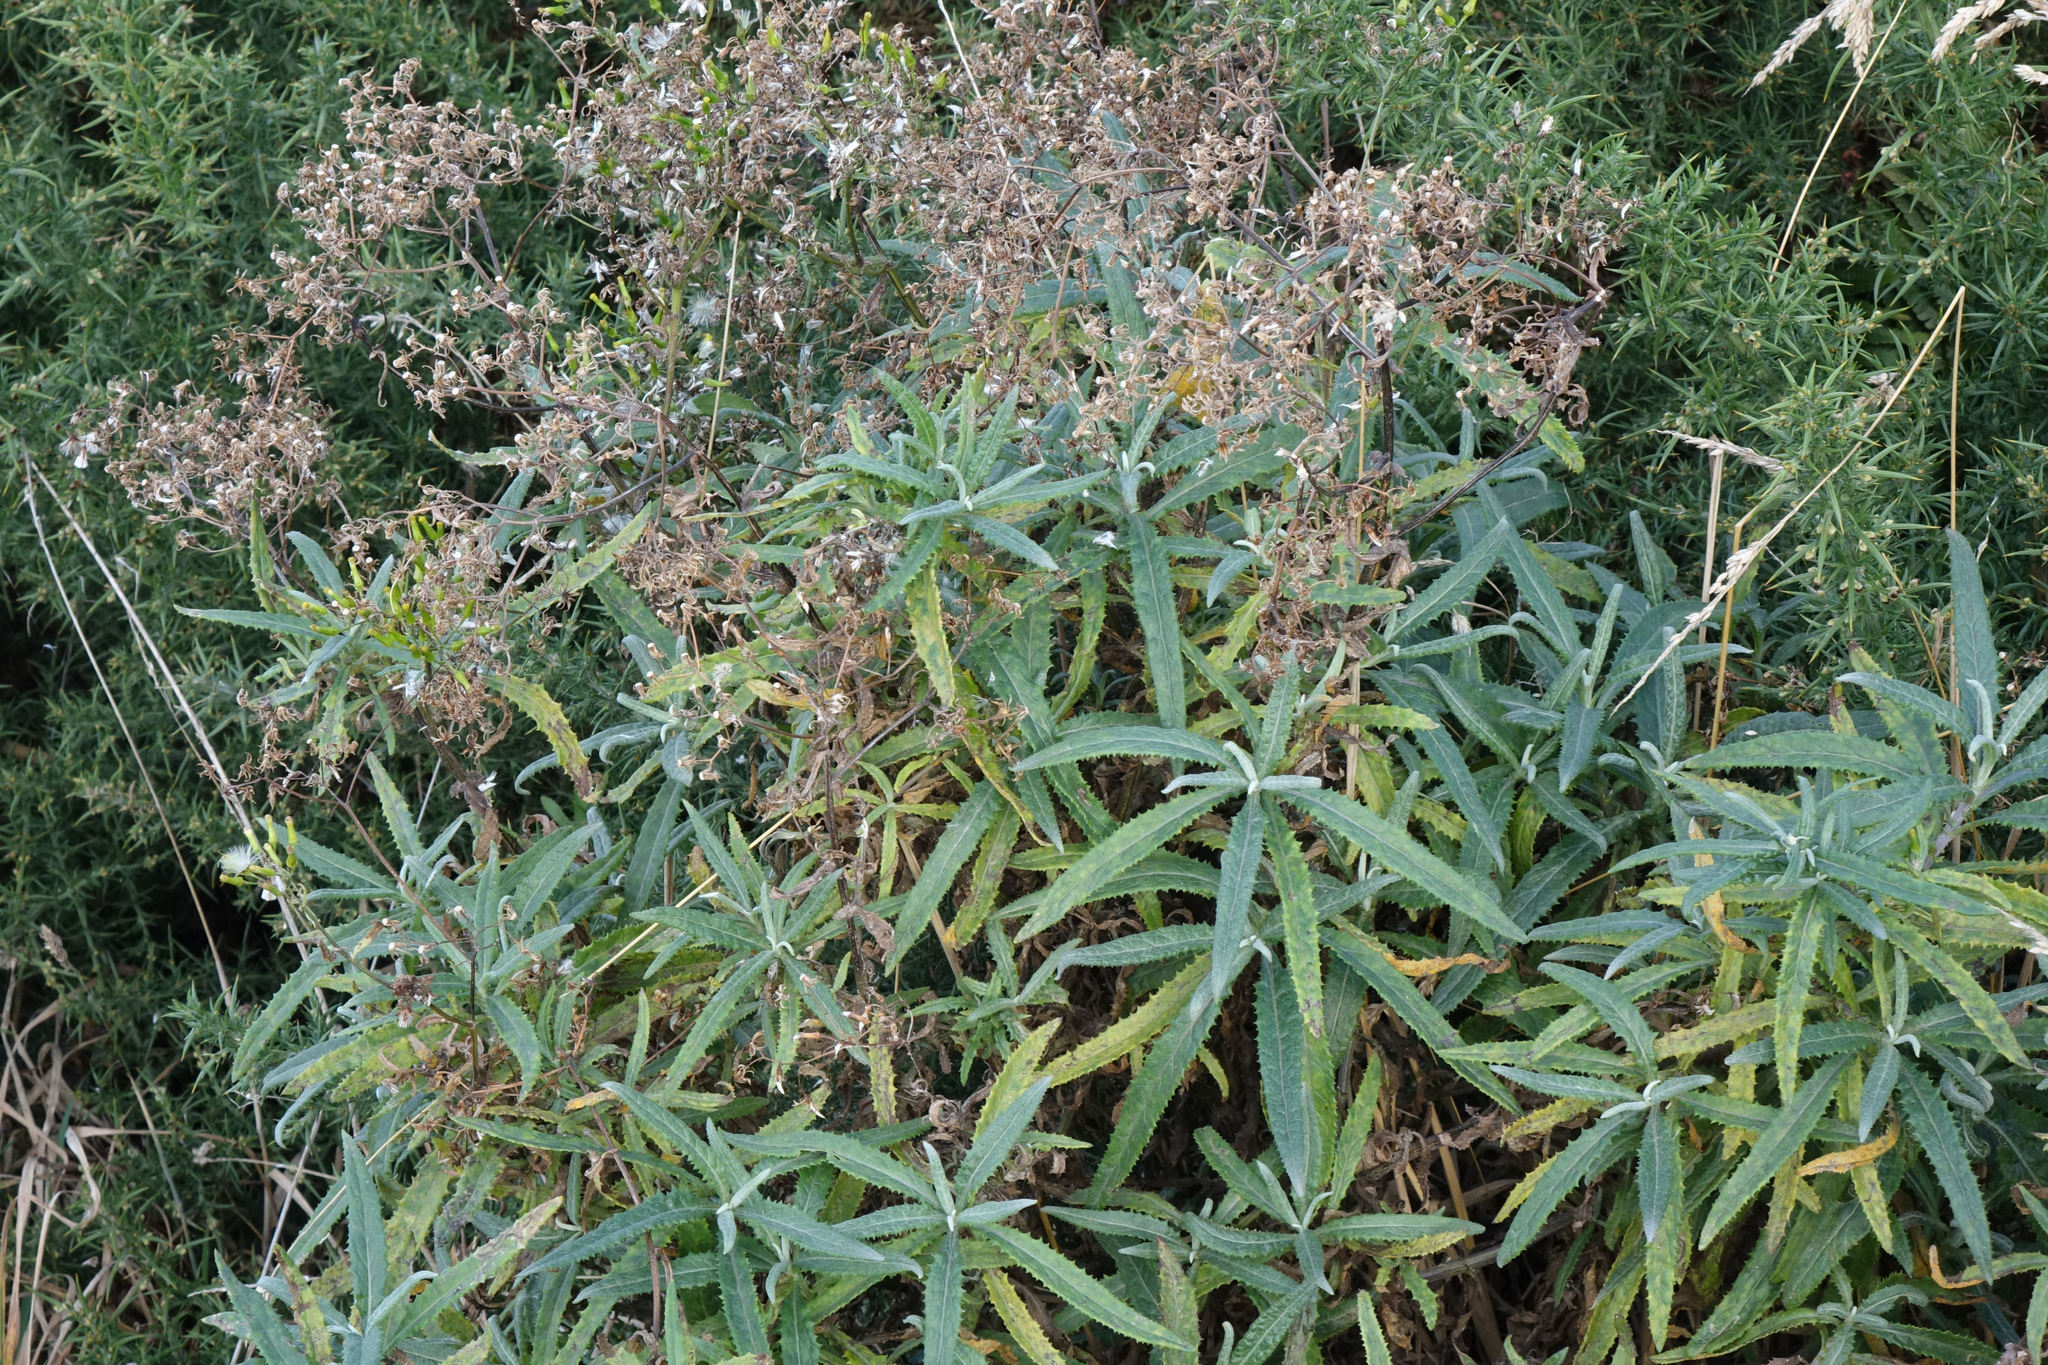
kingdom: Plantae
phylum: Tracheophyta
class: Magnoliopsida
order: Asterales
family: Asteraceae
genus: Senecio
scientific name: Senecio minimus
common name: Toothed fireweed
